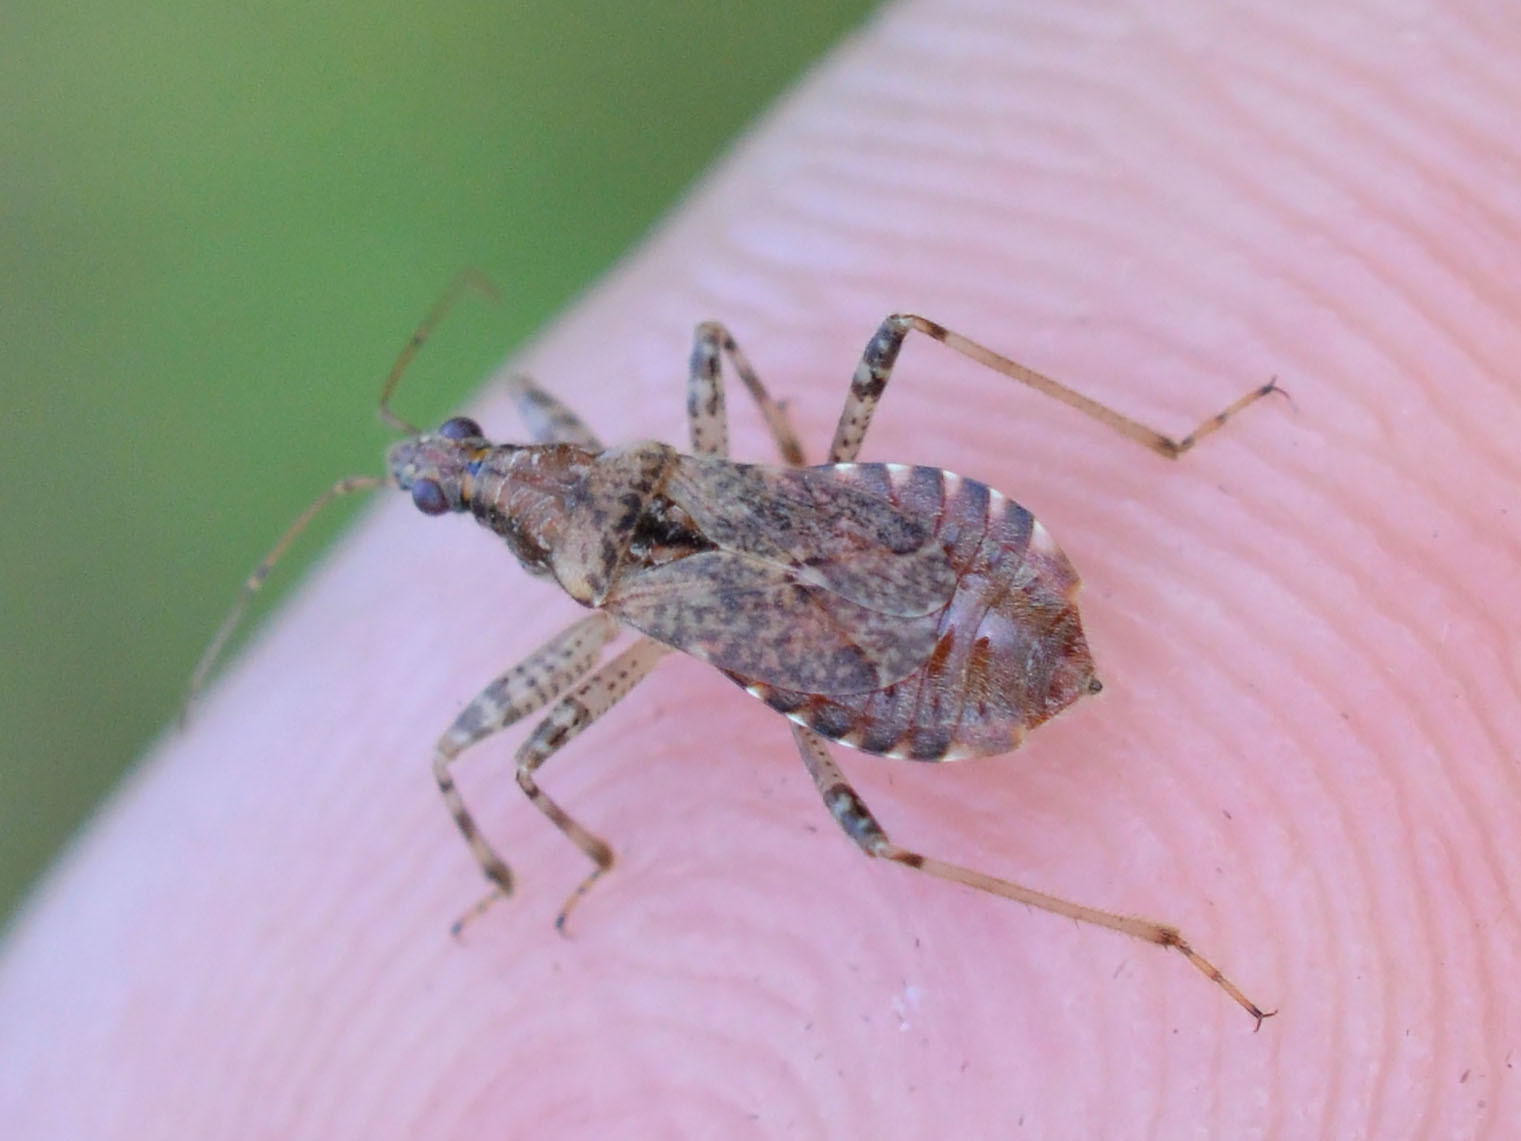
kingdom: Animalia
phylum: Arthropoda
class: Insecta
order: Hemiptera
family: Nabidae
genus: Himacerus
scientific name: Himacerus mirmicoides
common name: Ant damsel bug
